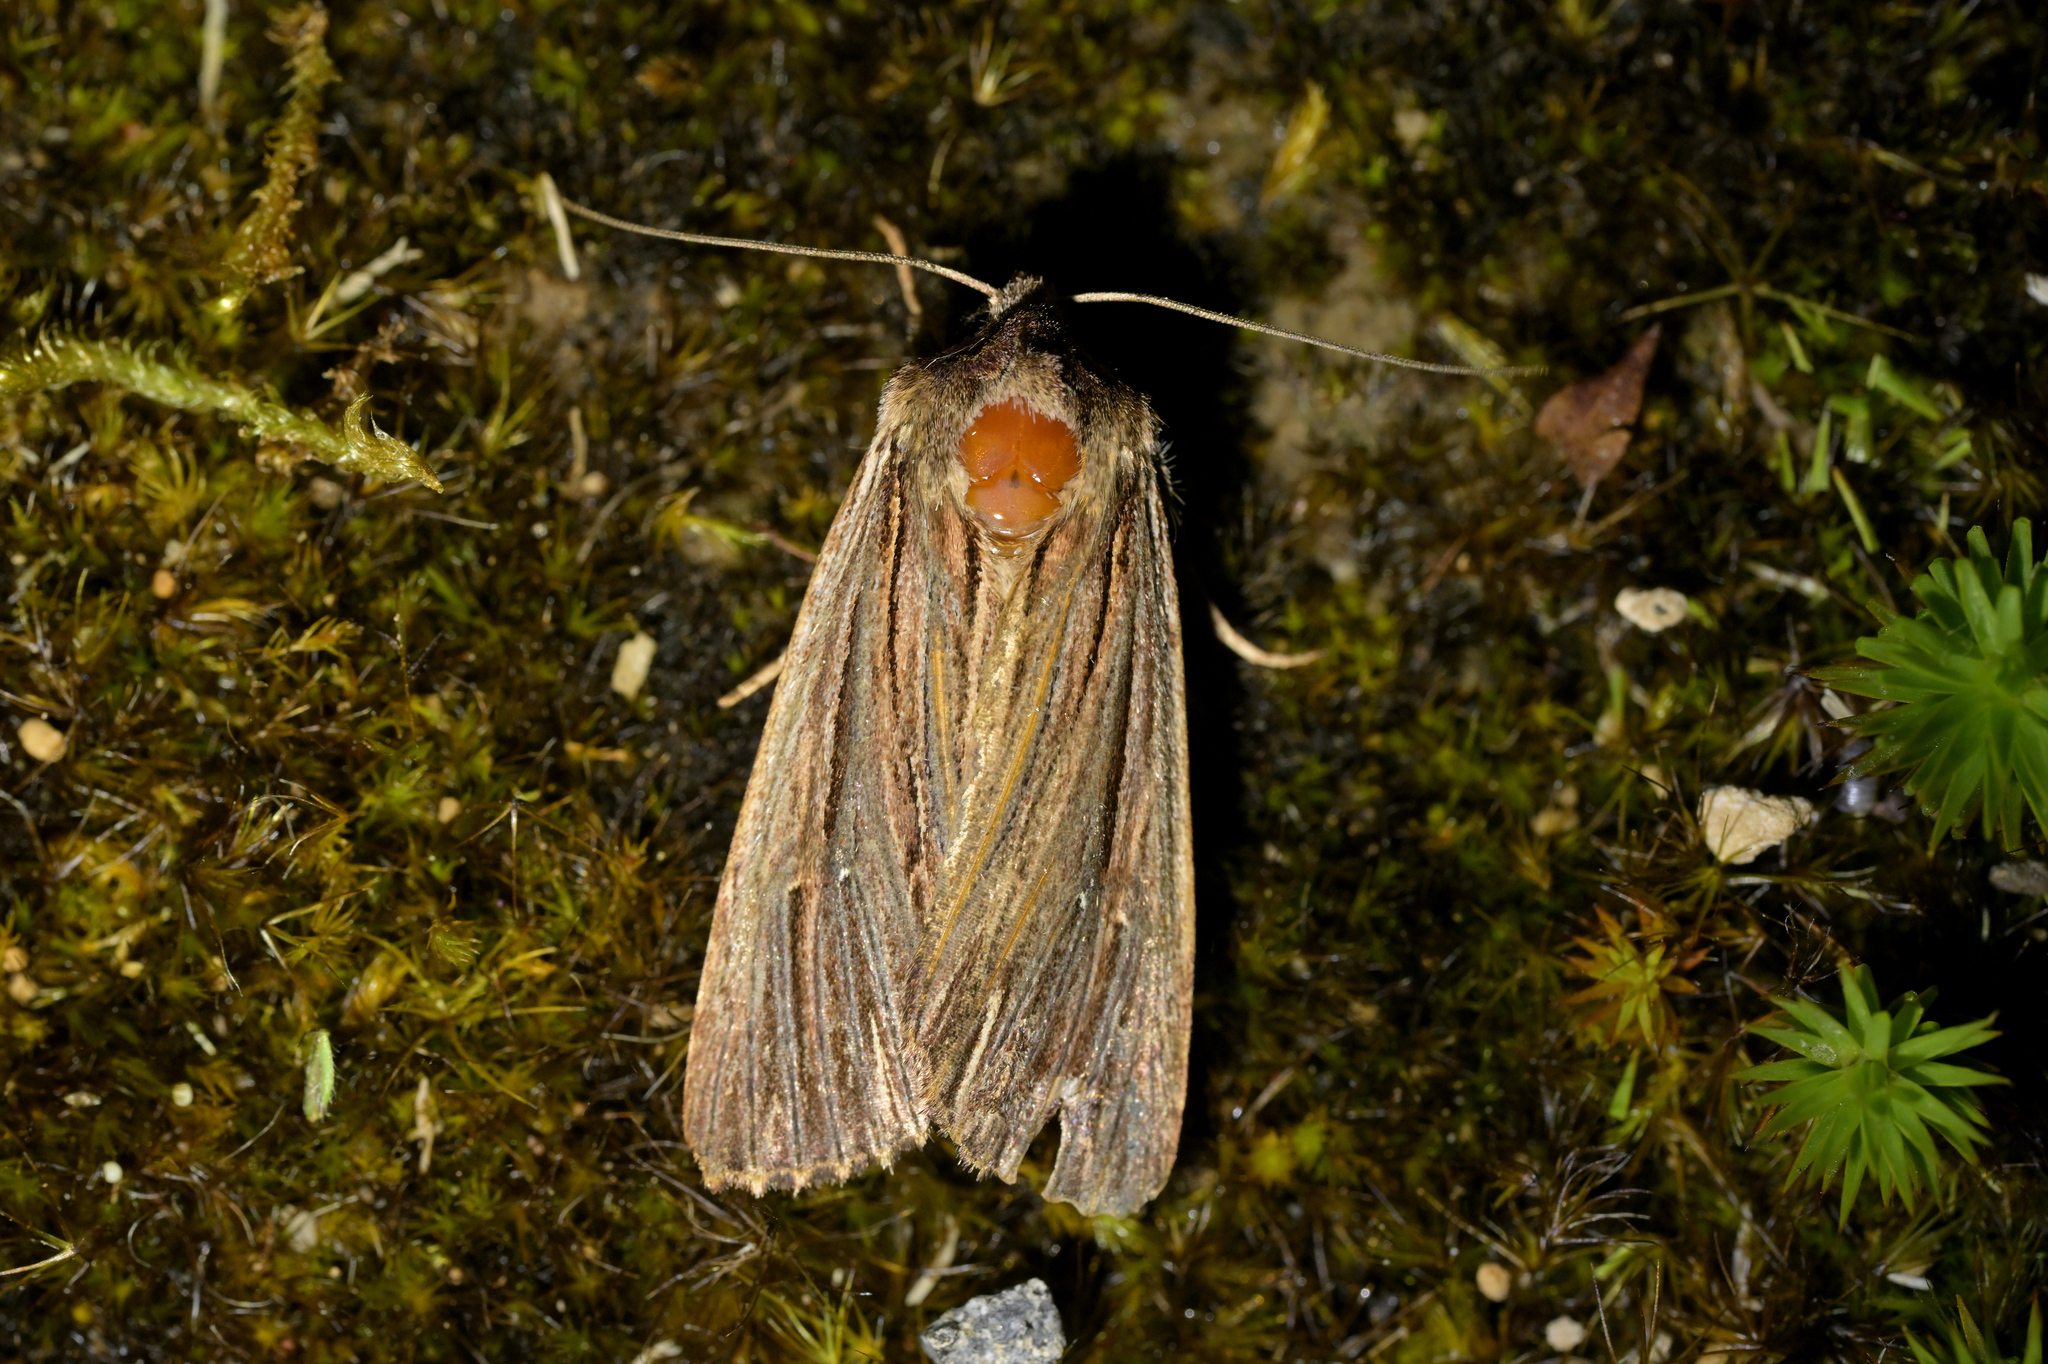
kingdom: Animalia
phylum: Arthropoda
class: Insecta
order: Lepidoptera
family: Noctuidae
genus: Ichneutica
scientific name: Ichneutica
